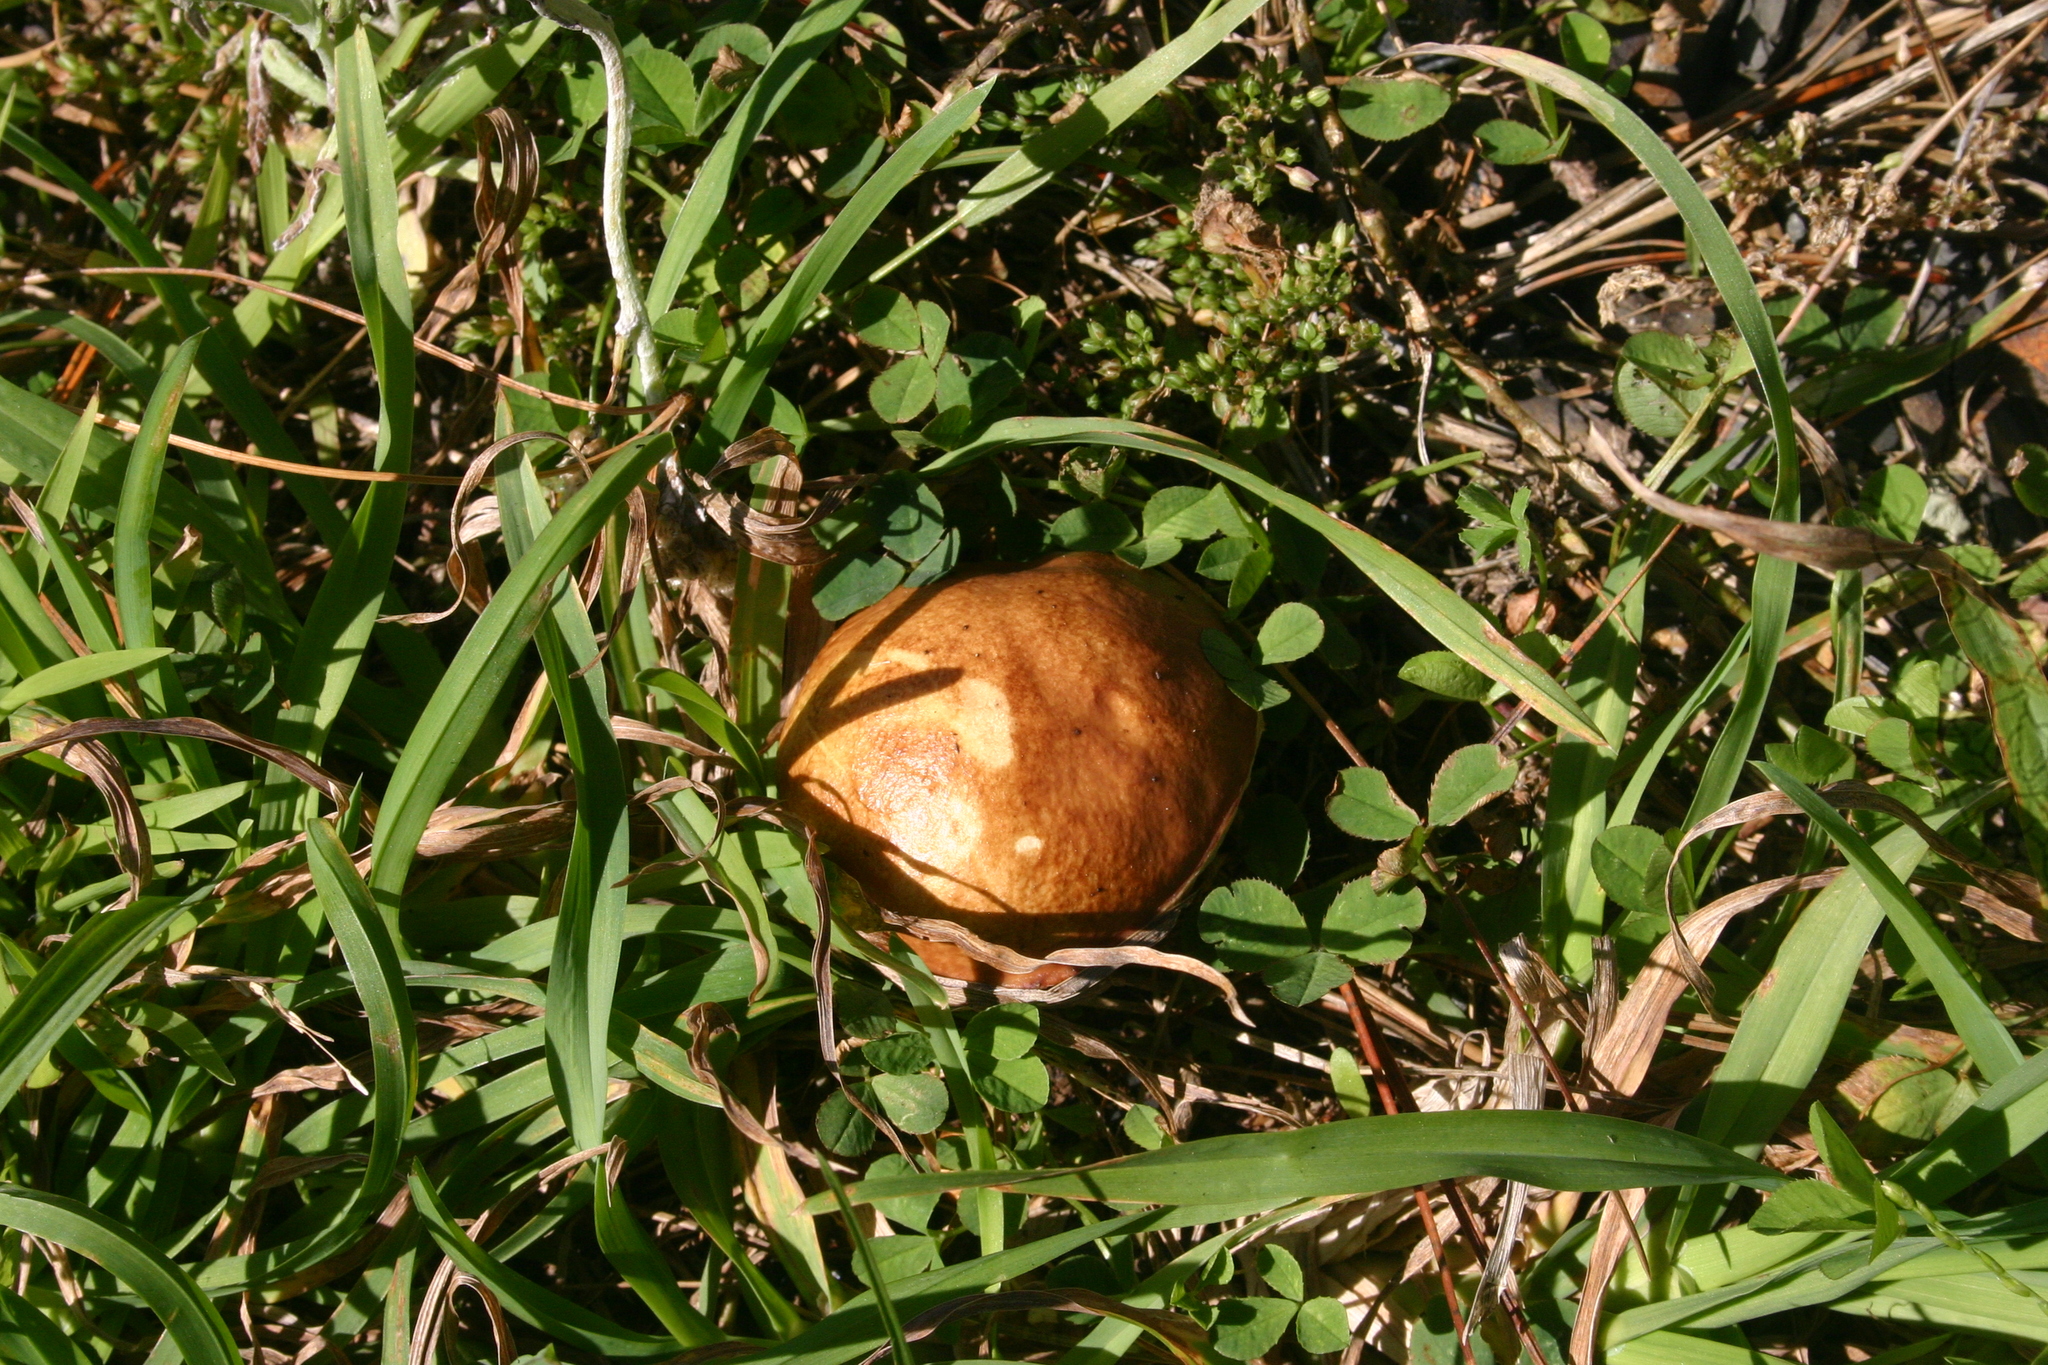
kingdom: Fungi
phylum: Basidiomycota
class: Agaricomycetes
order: Boletales
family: Suillaceae
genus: Suillus
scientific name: Suillus granulatus
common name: Weeping bolete
